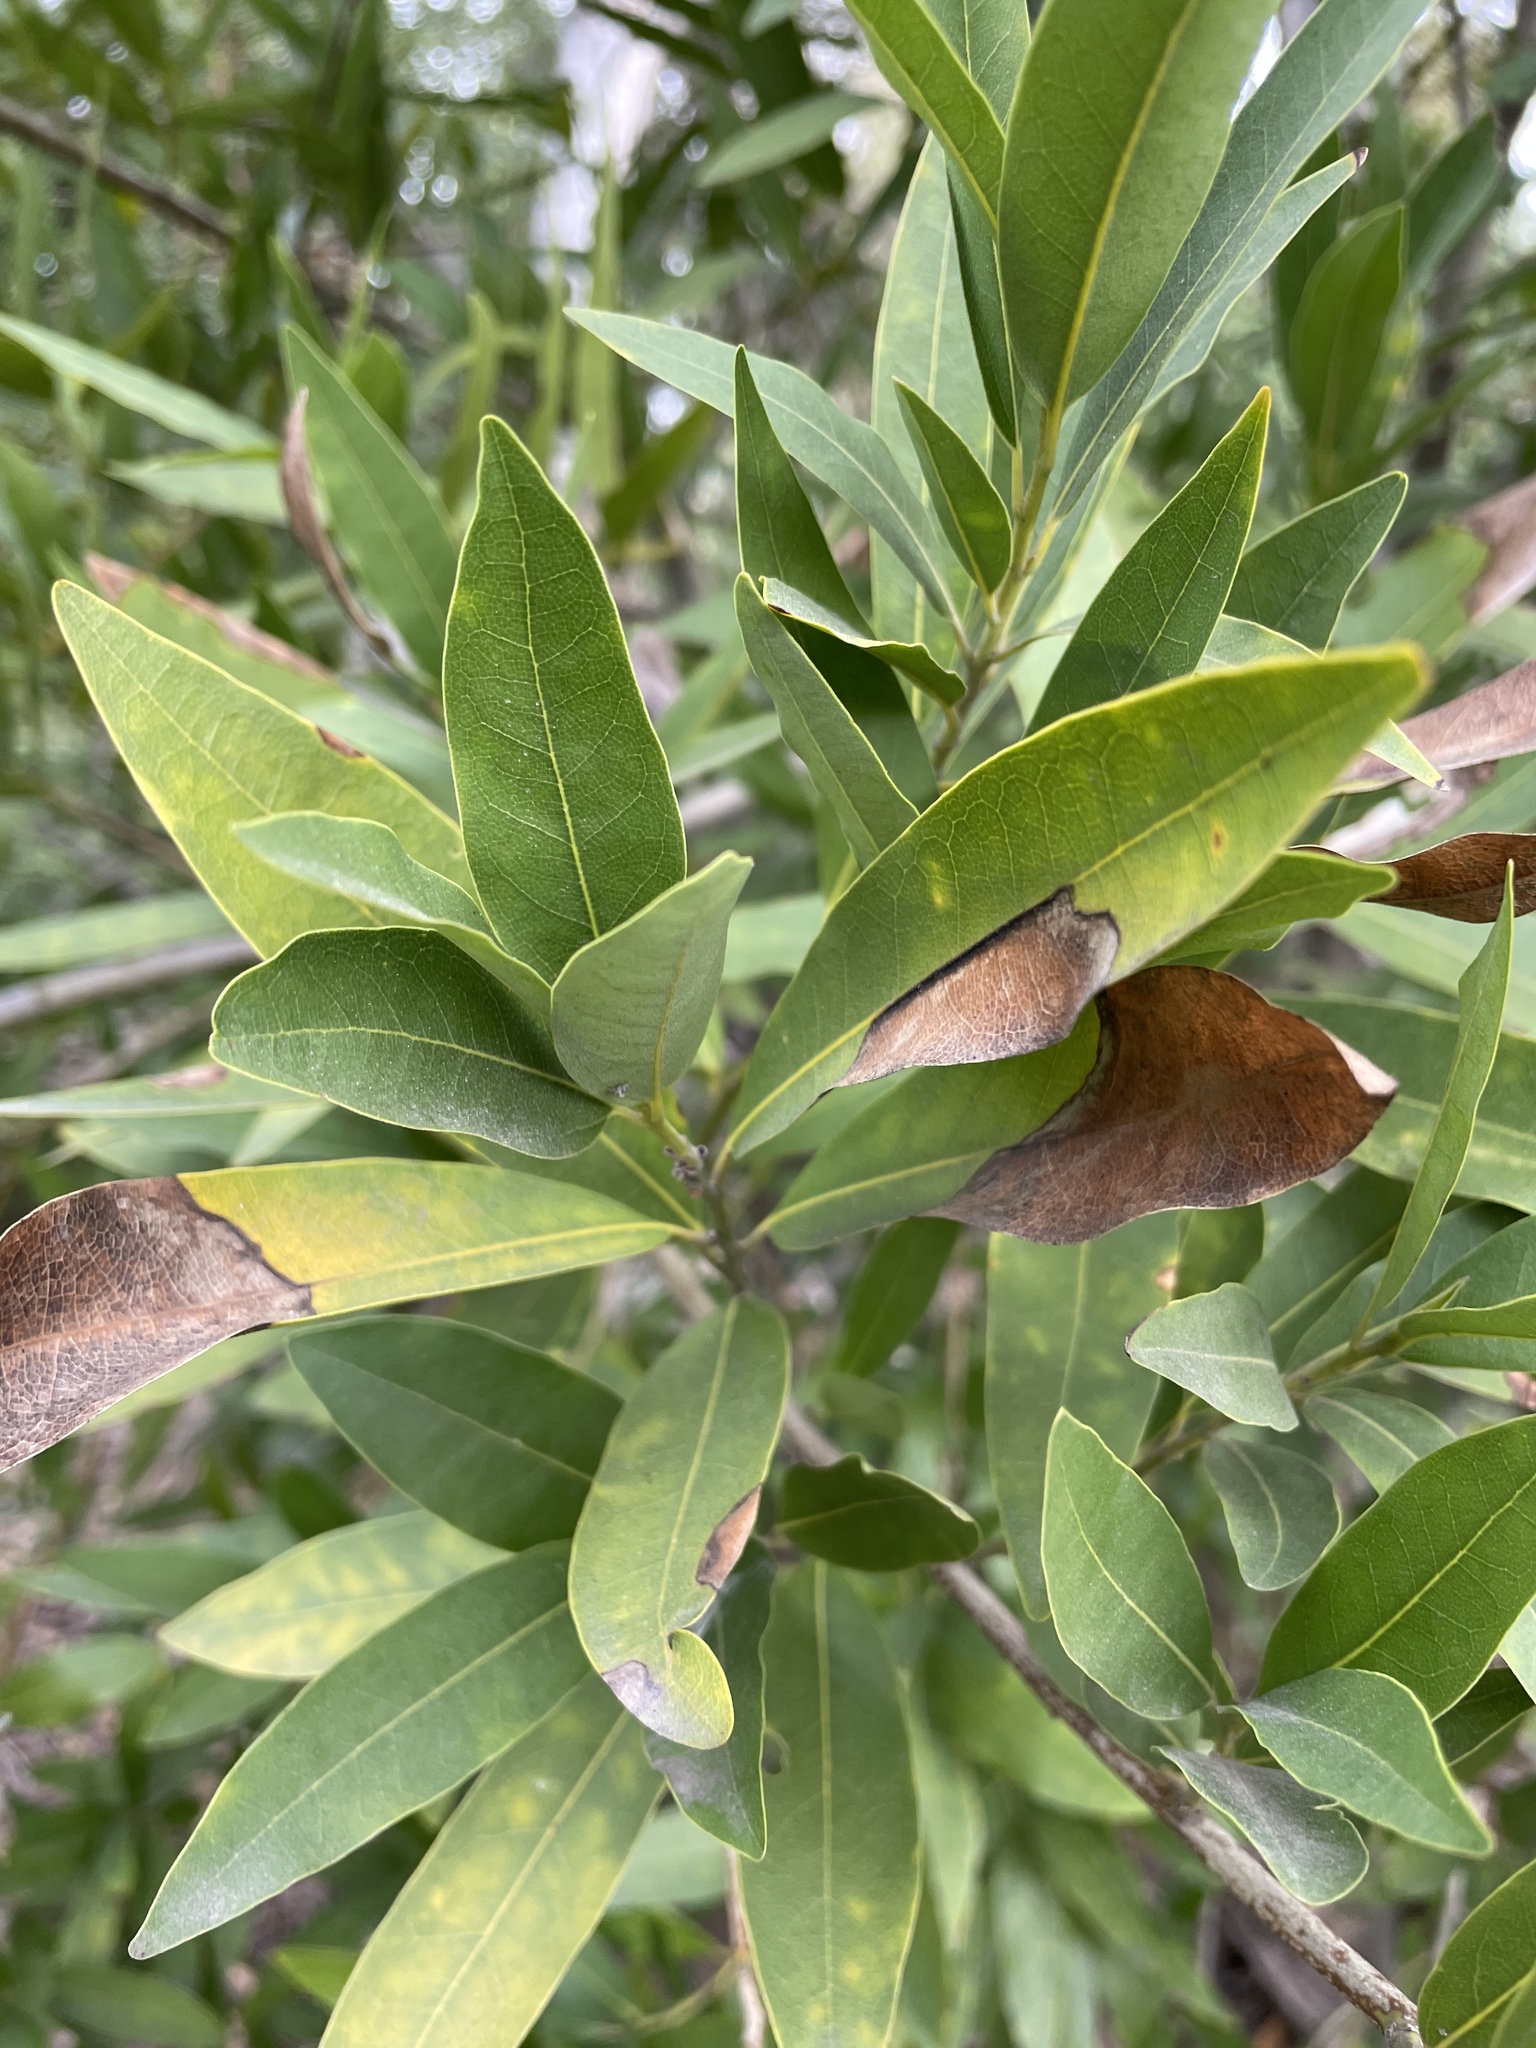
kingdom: Plantae
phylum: Tracheophyta
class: Magnoliopsida
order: Laurales
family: Lauraceae
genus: Umbellularia
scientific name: Umbellularia californica
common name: California bay
